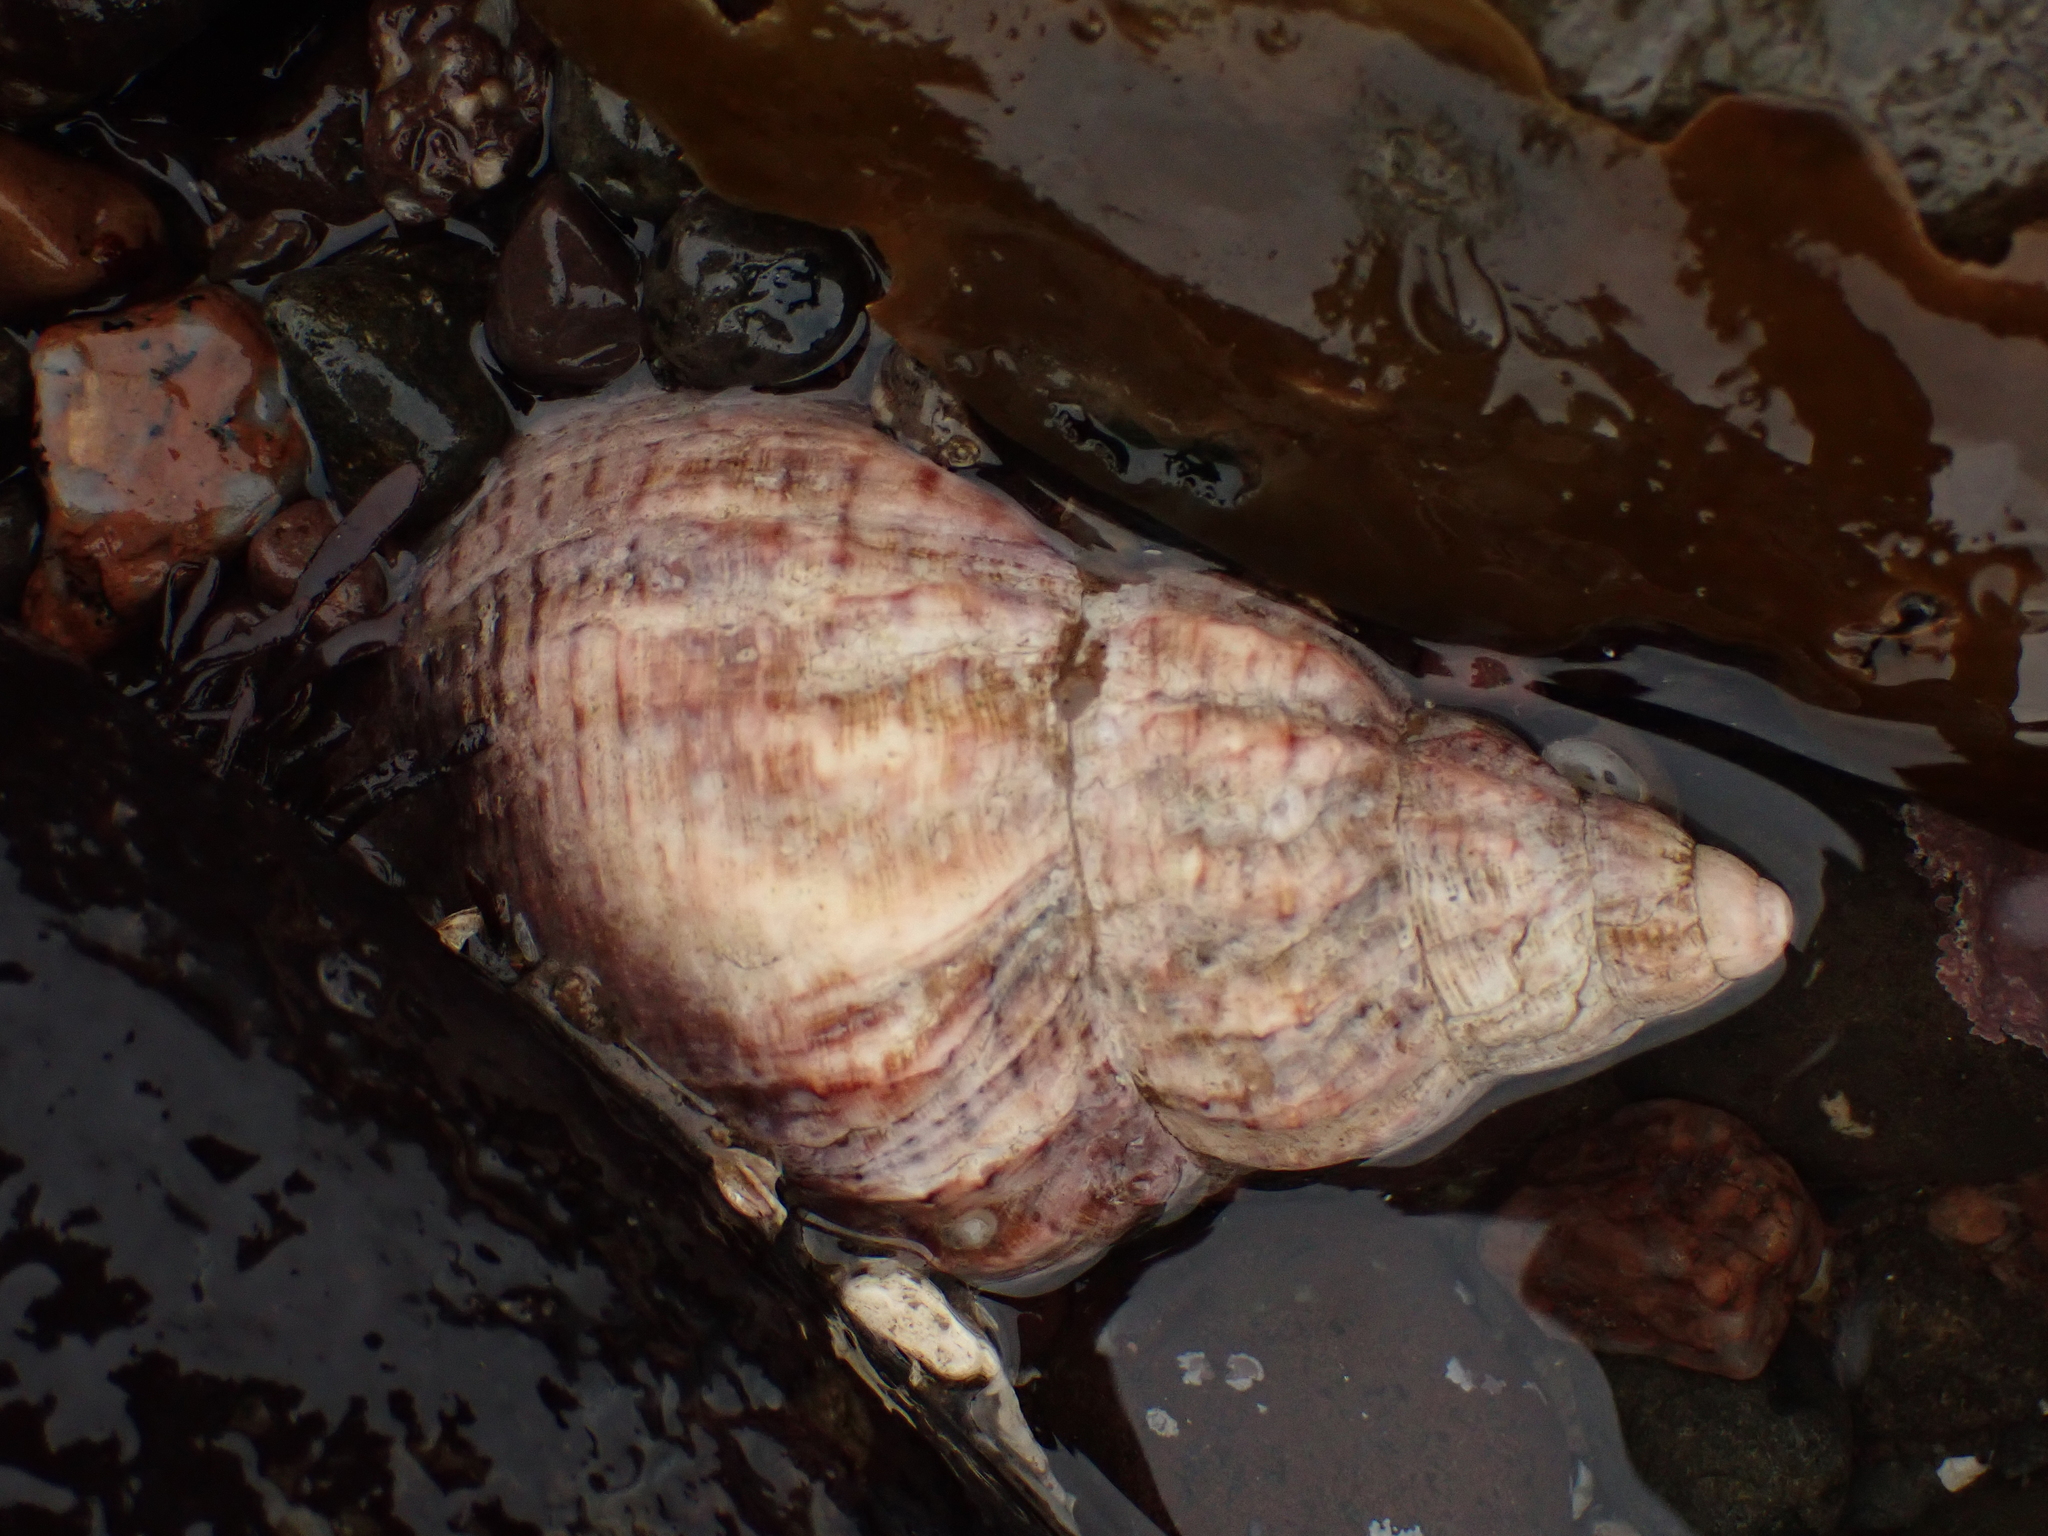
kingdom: Animalia
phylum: Mollusca
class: Gastropoda
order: Neogastropoda
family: Buccinidae
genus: Buccinum
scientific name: Buccinum undatum
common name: Common whelk
